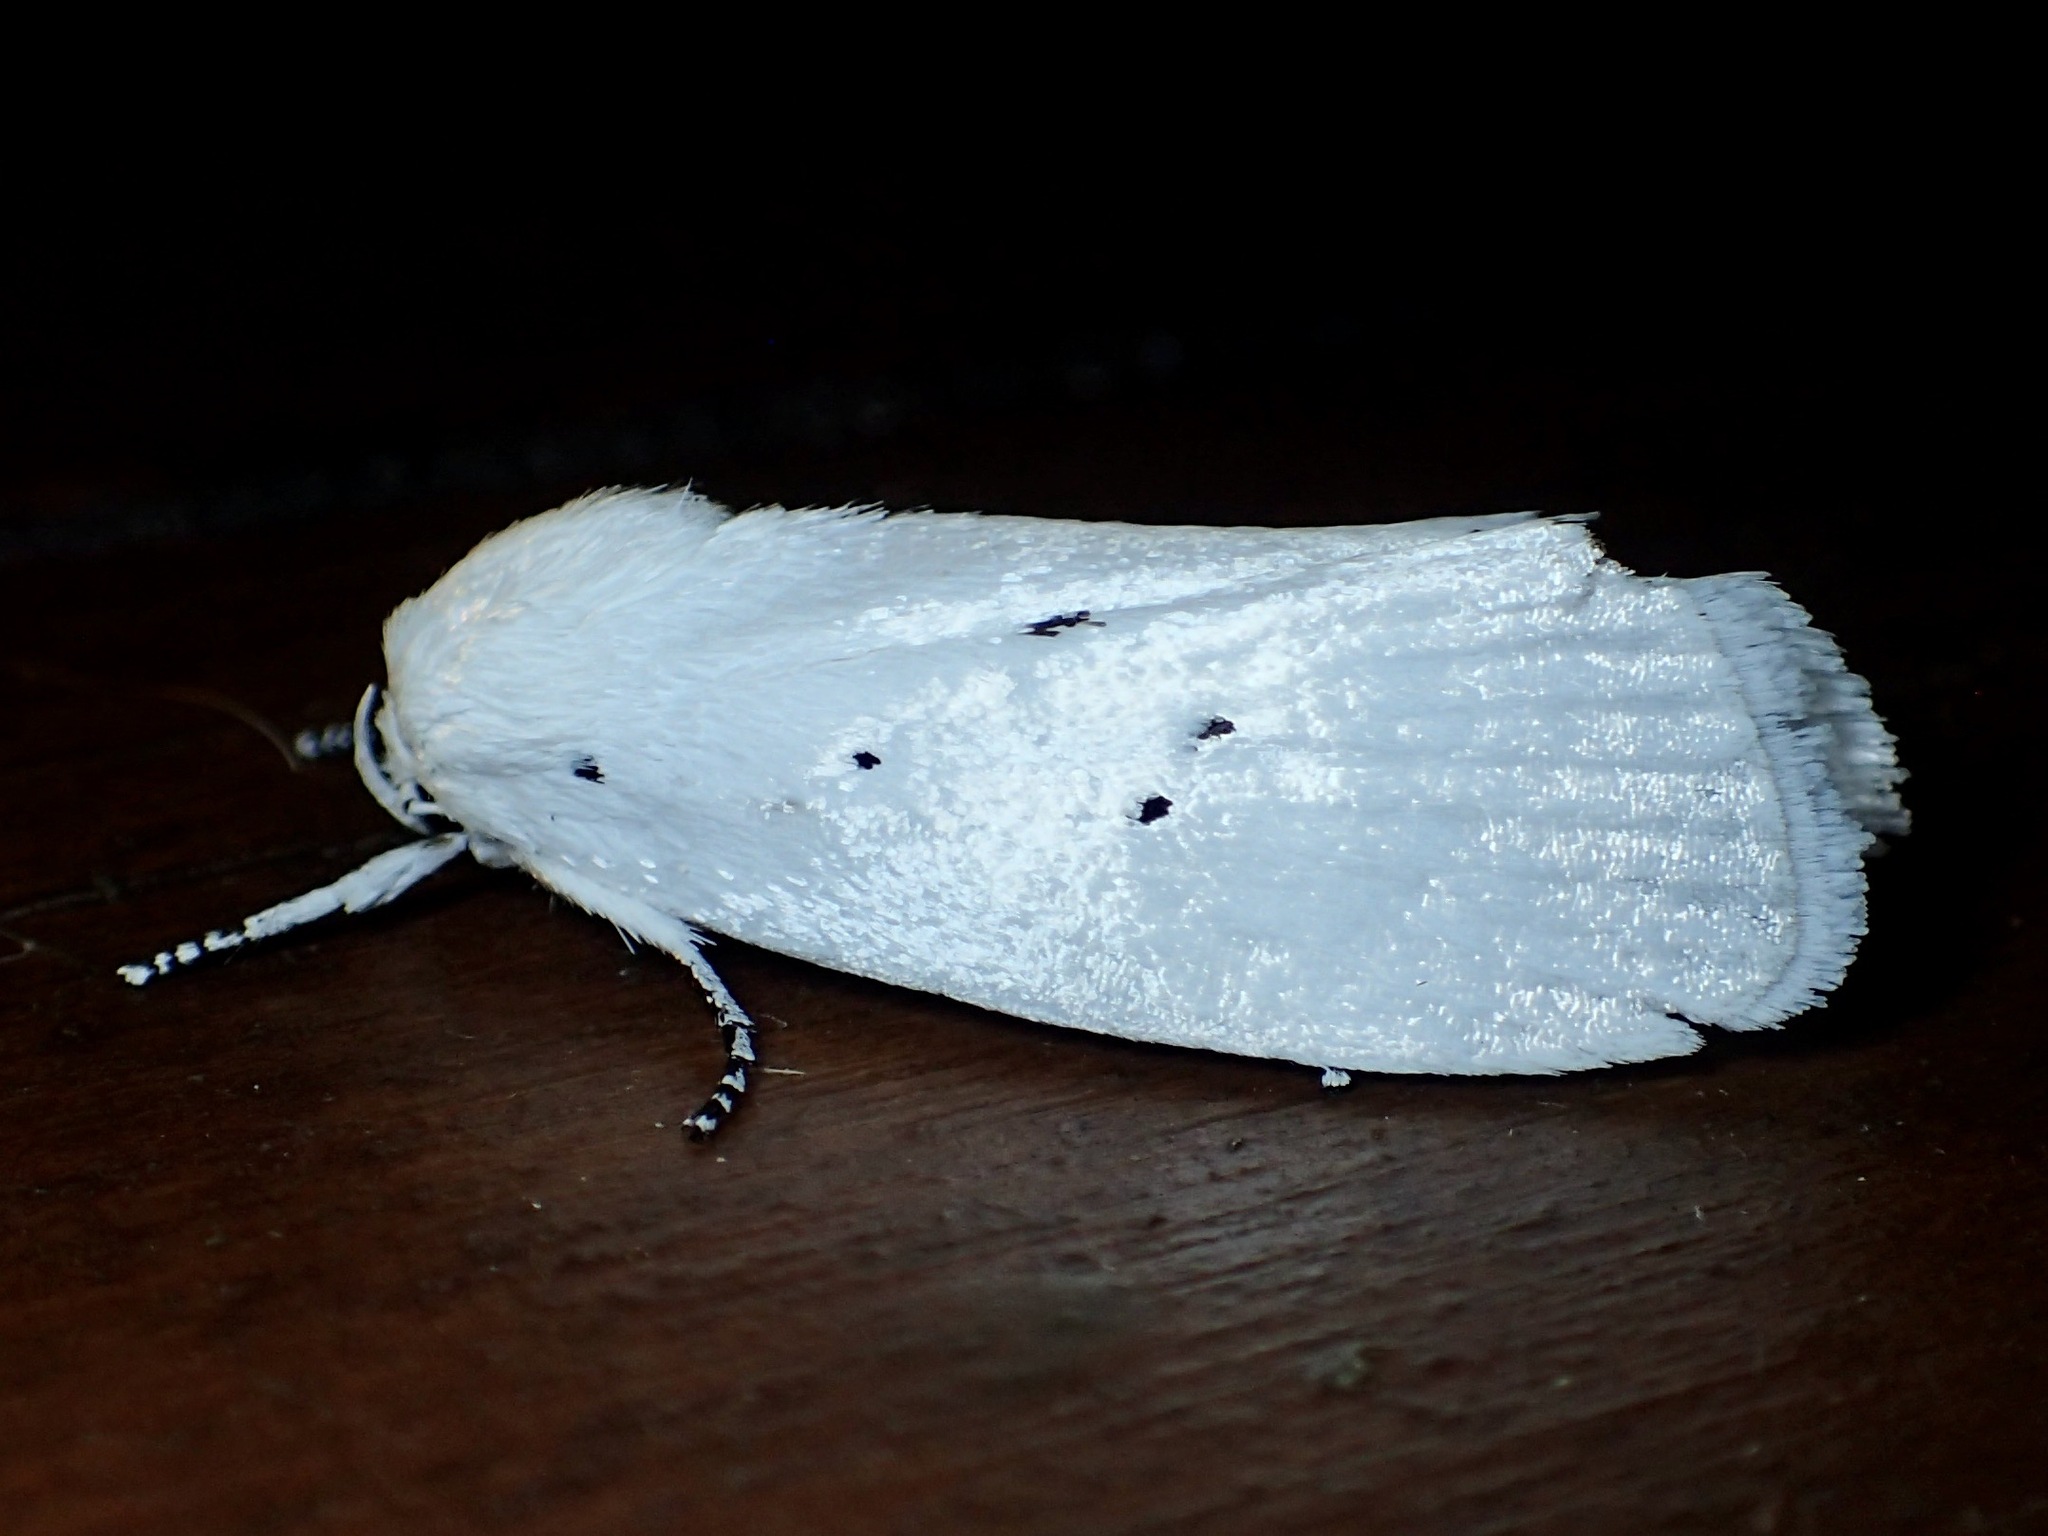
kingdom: Animalia
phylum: Arthropoda
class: Insecta
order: Lepidoptera
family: Xyloryctidae
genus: Cryptophasa
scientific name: Cryptophasa lasiocosma
